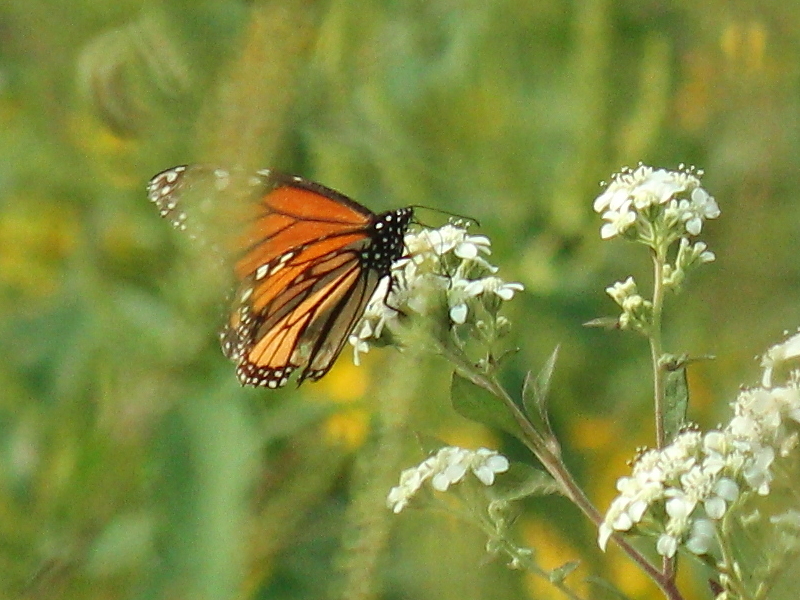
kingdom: Animalia
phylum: Arthropoda
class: Insecta
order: Lepidoptera
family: Nymphalidae
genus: Danaus
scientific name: Danaus plexippus
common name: Monarch
